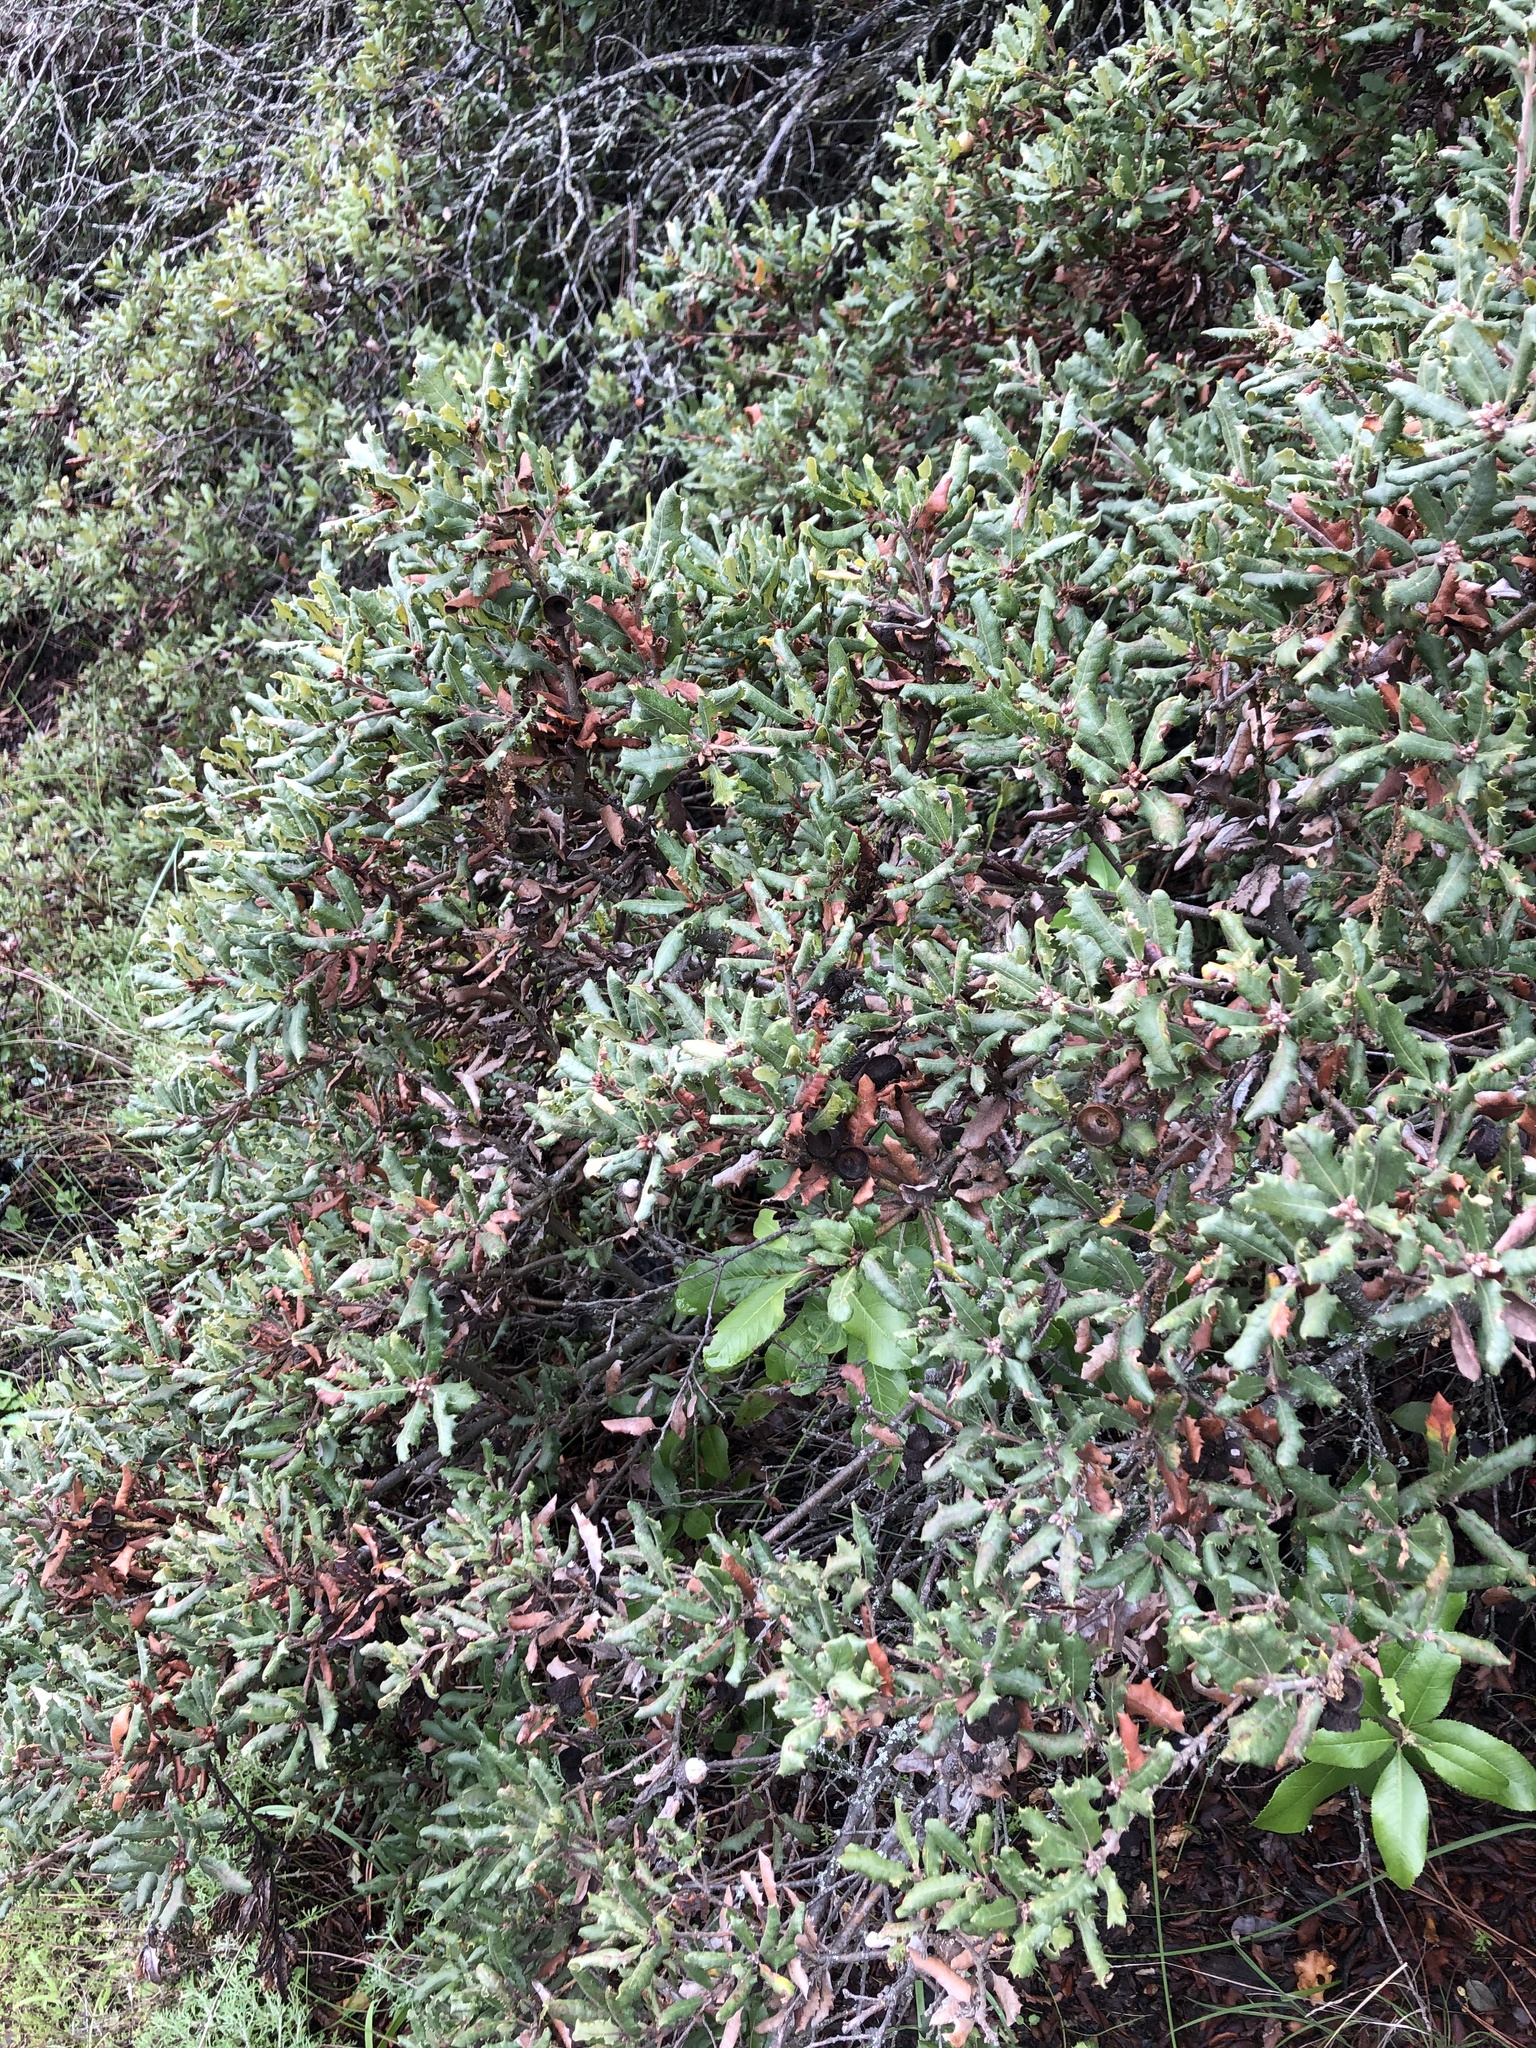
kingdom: Plantae
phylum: Tracheophyta
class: Magnoliopsida
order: Fagales
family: Fagaceae
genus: Quercus
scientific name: Quercus durata
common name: Leather oak
